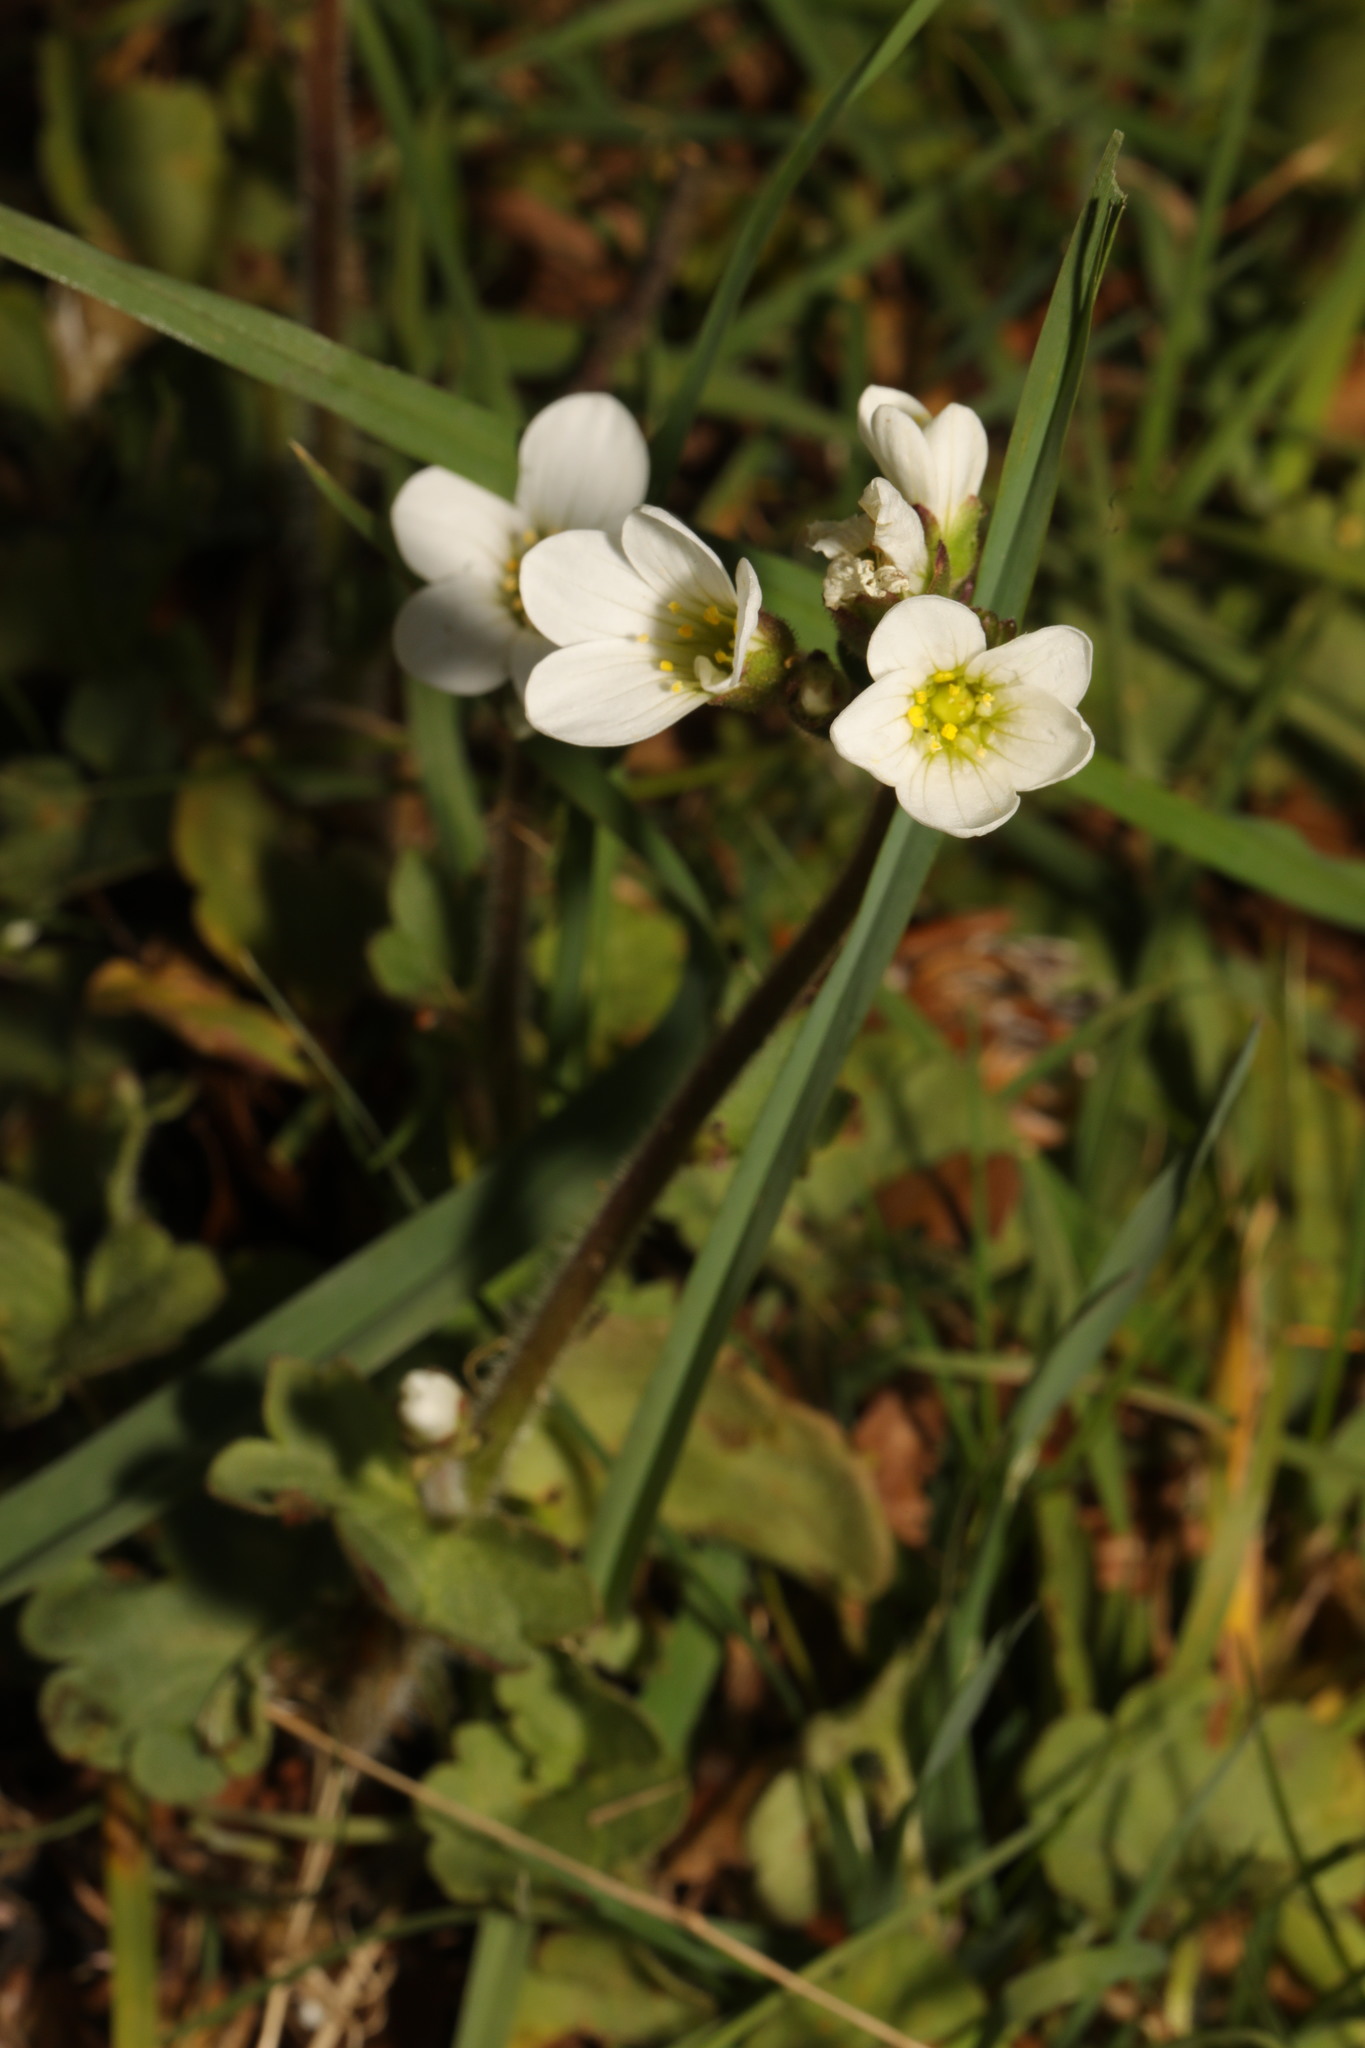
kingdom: Plantae
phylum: Tracheophyta
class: Magnoliopsida
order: Saxifragales
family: Saxifragaceae
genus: Saxifraga
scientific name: Saxifraga granulata
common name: Meadow saxifrage
